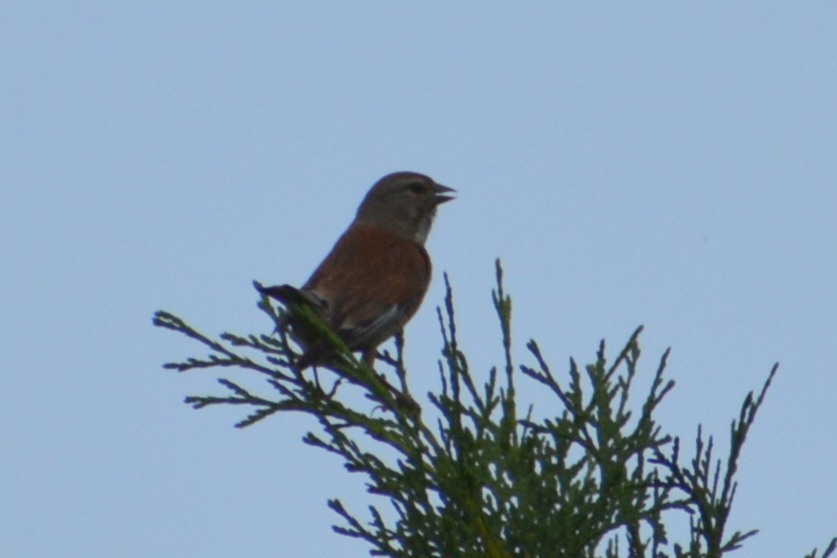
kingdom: Animalia
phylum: Chordata
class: Aves
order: Passeriformes
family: Fringillidae
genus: Linaria
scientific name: Linaria cannabina
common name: Common linnet
